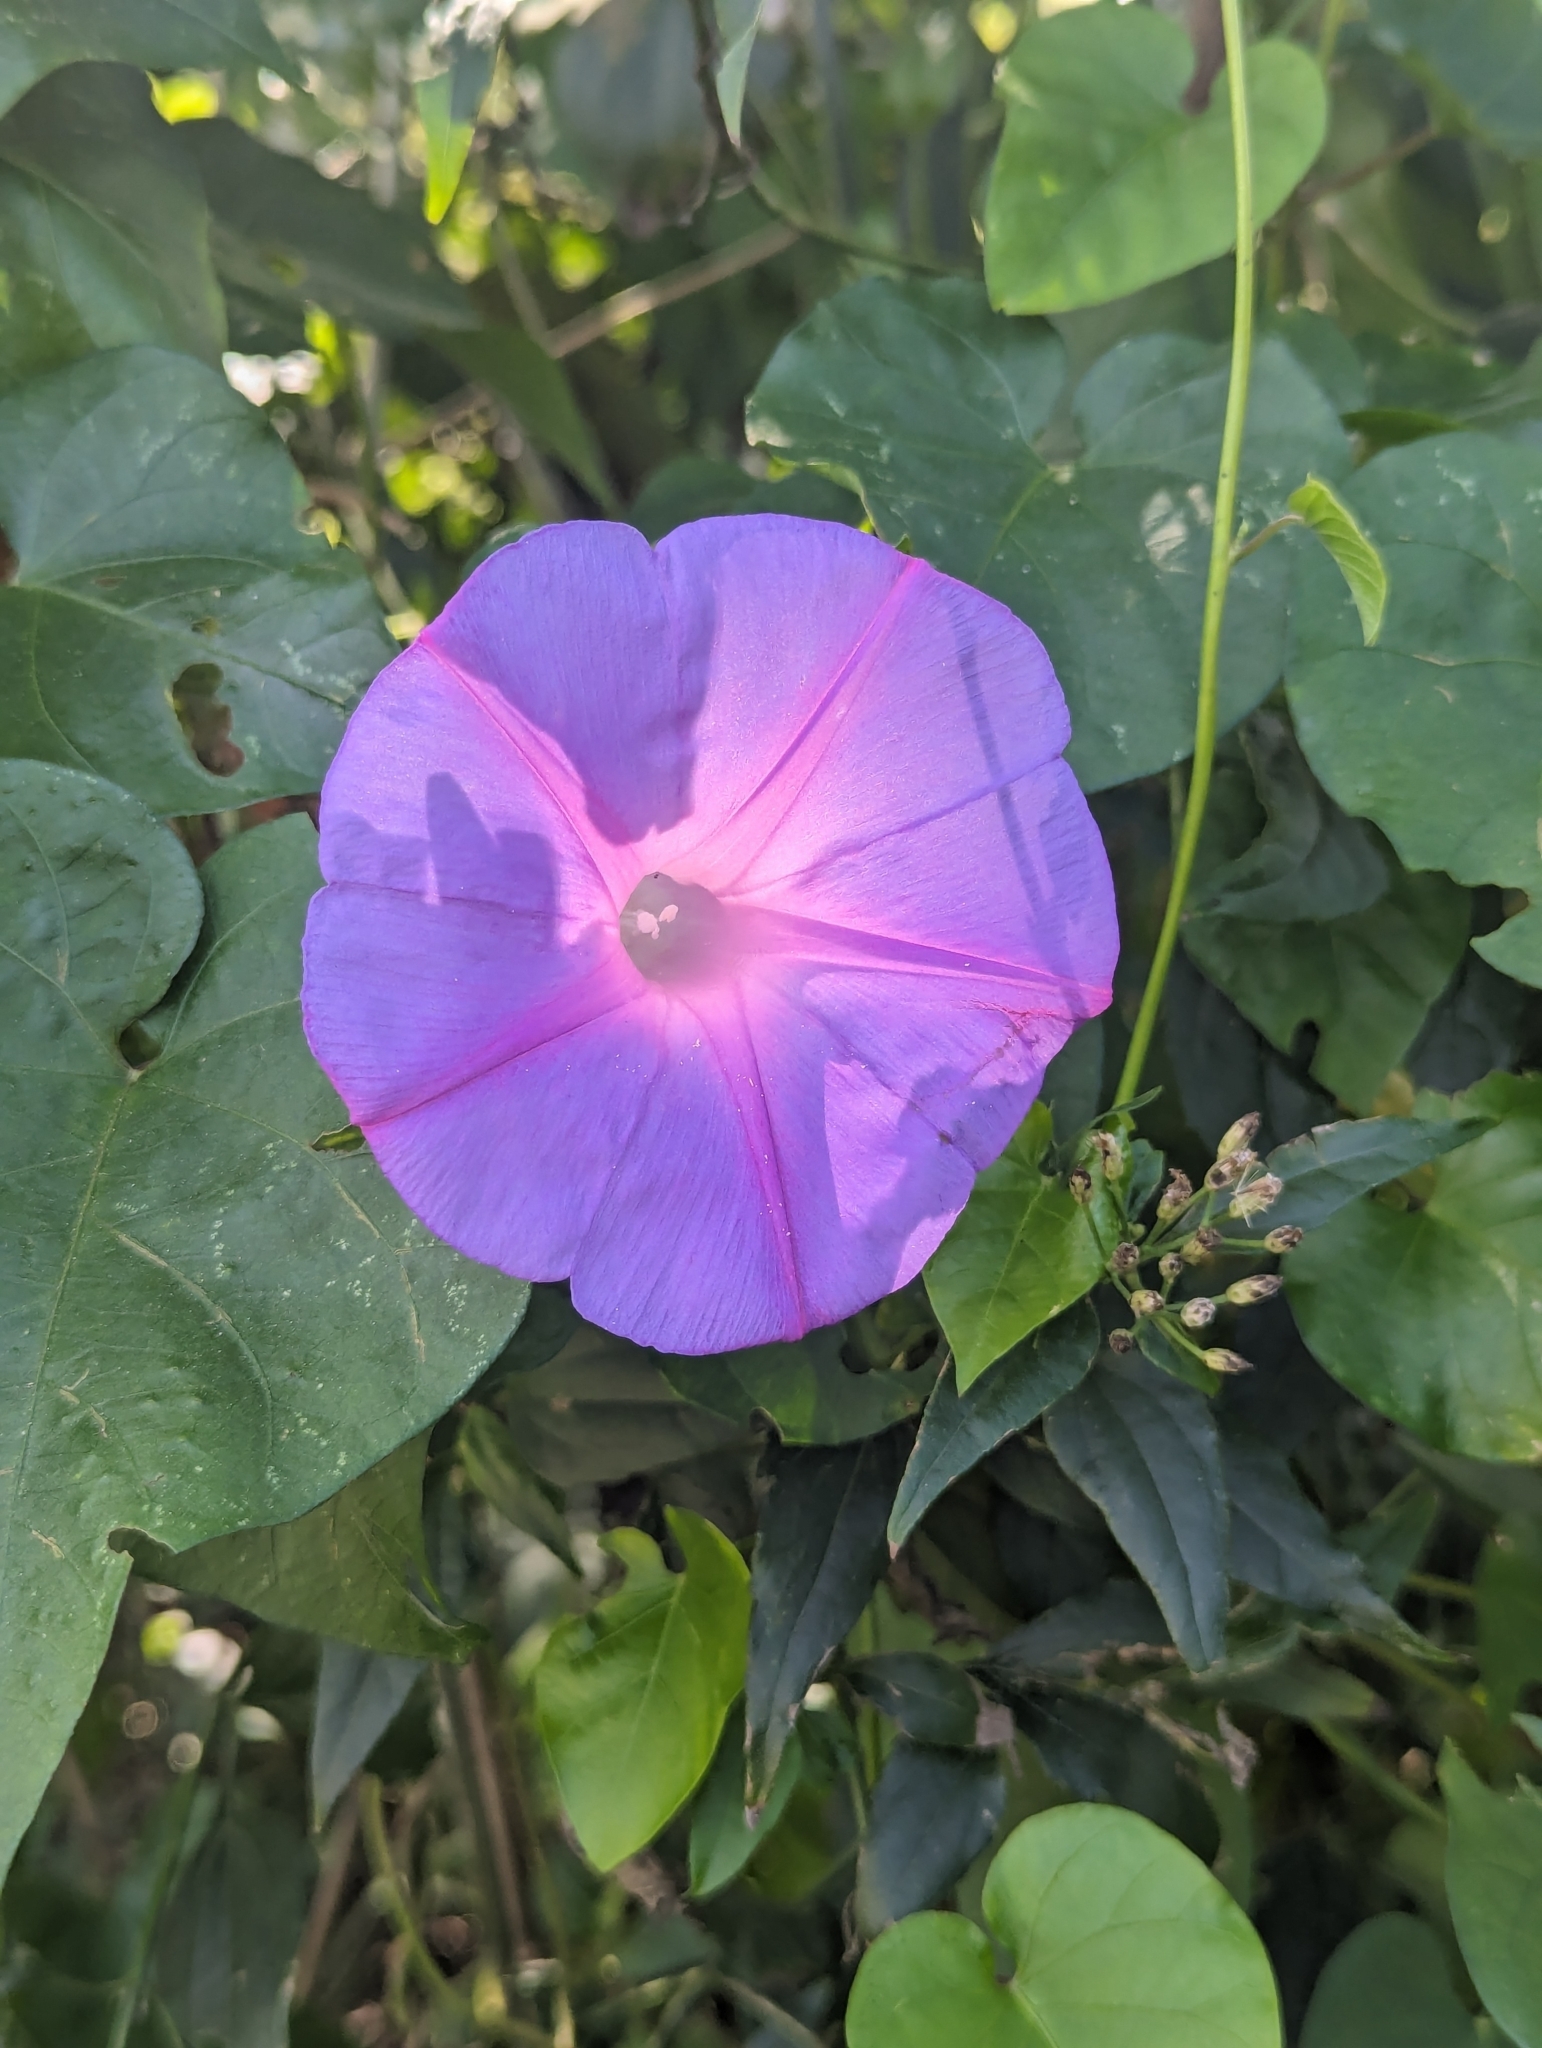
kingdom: Plantae
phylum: Tracheophyta
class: Magnoliopsida
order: Solanales
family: Convolvulaceae
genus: Ipomoea
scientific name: Ipomoea indica
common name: Blue dawnflower
